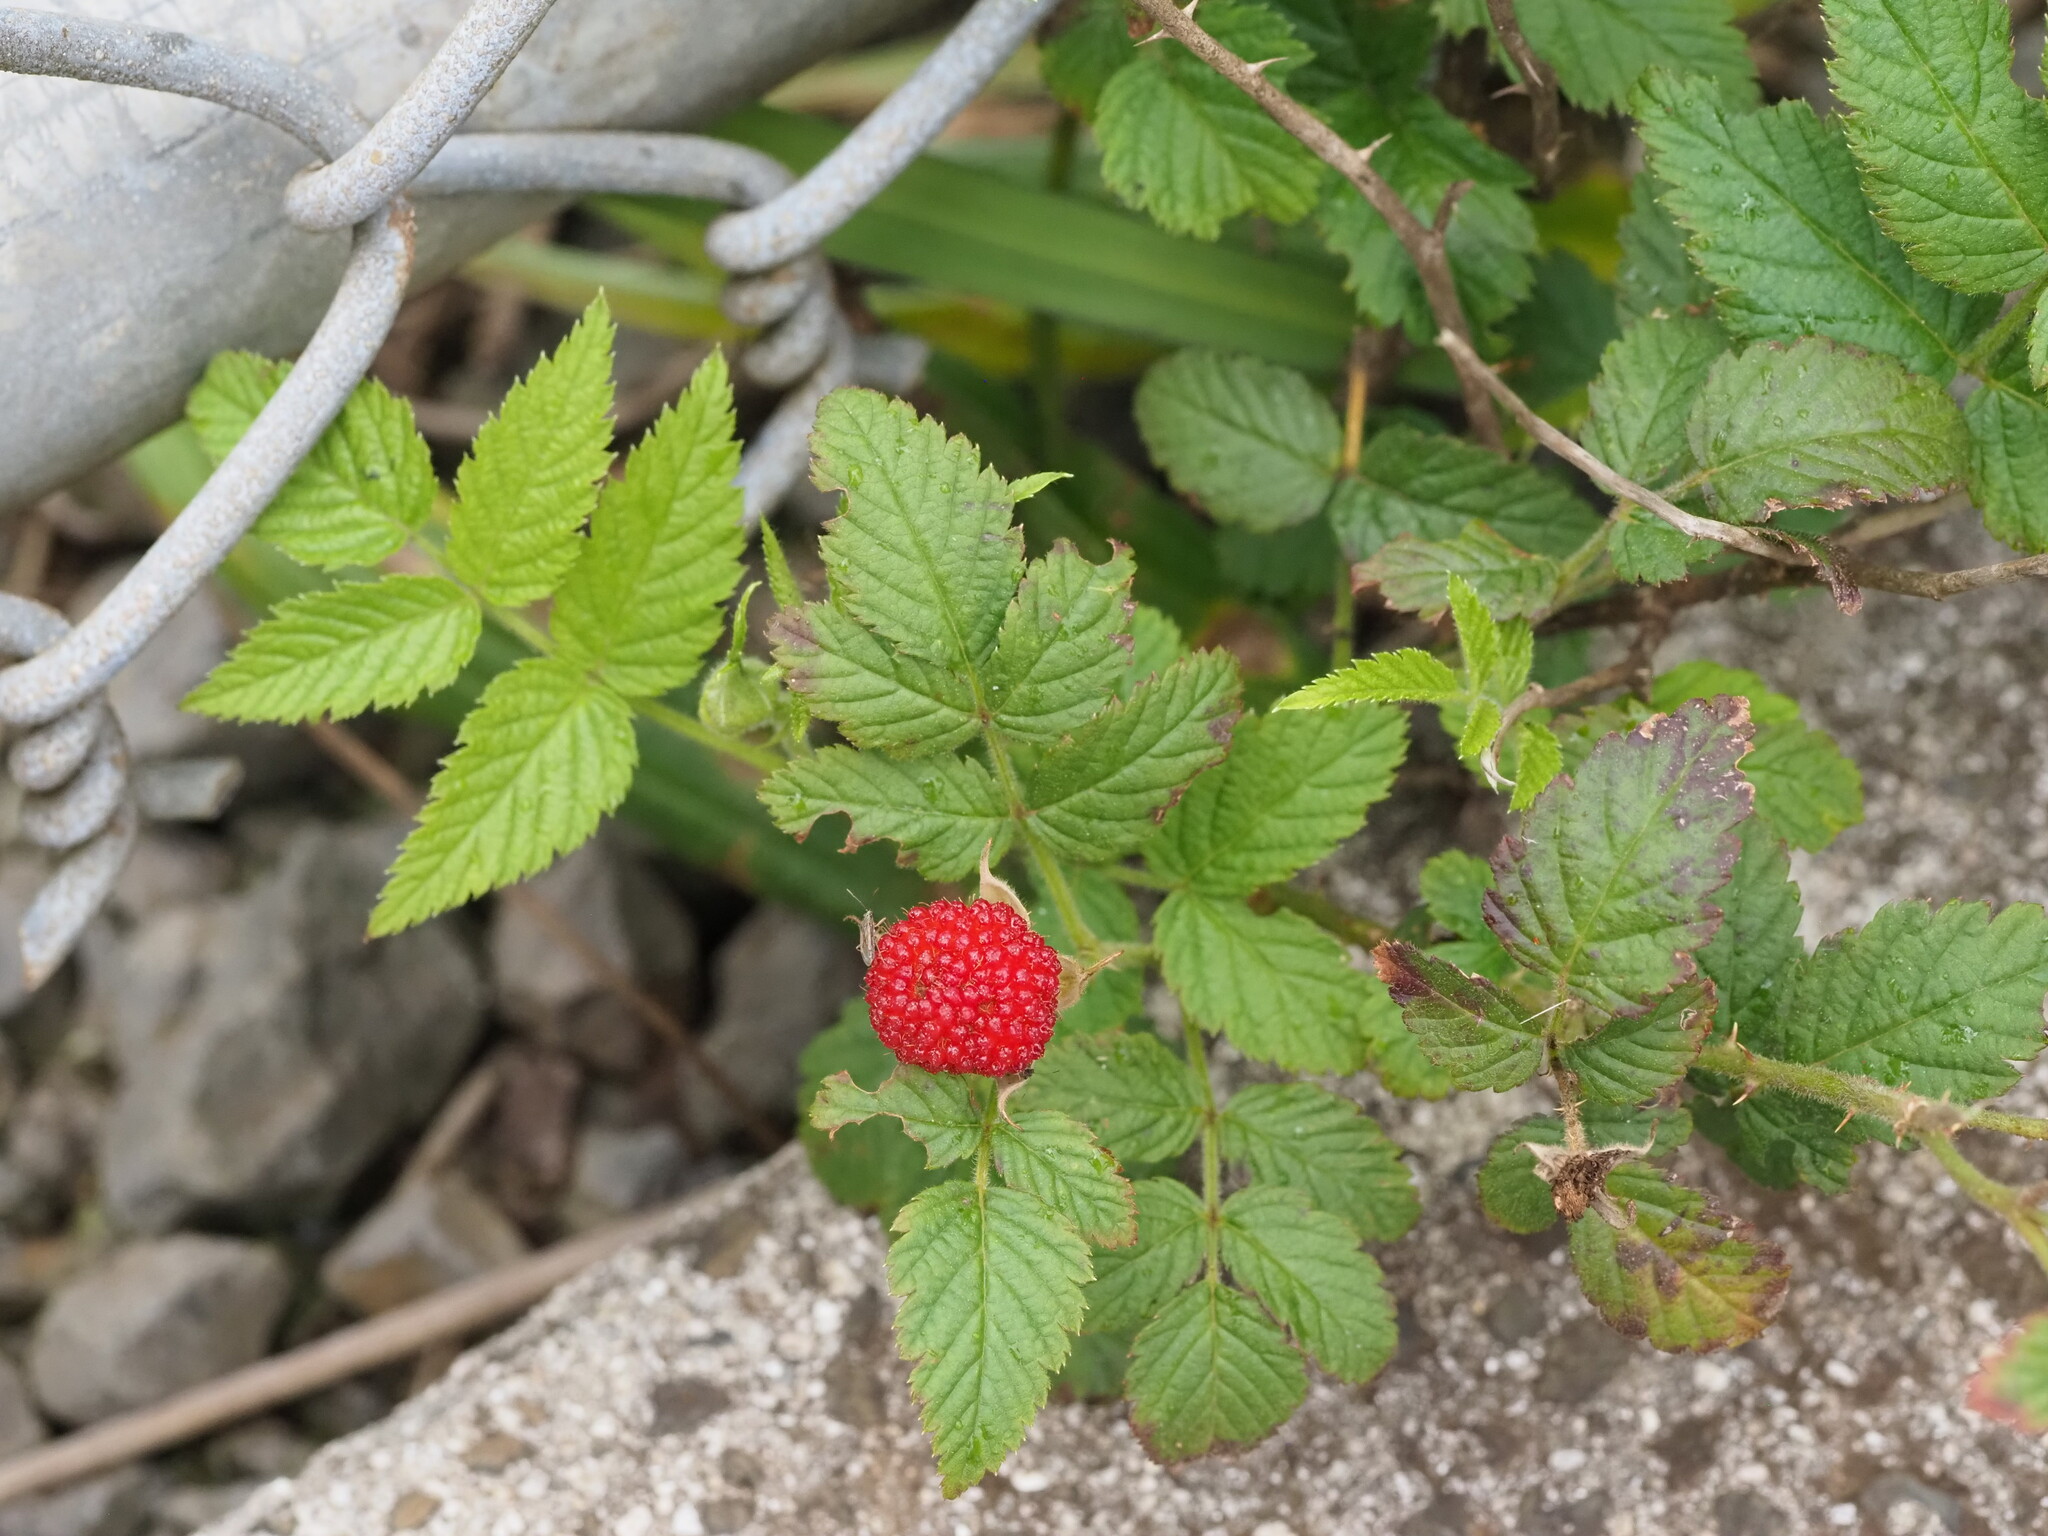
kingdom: Plantae
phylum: Tracheophyta
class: Magnoliopsida
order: Rosales
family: Rosaceae
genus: Rubus
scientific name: Rubus rosifolius
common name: Roseleaf raspberry
